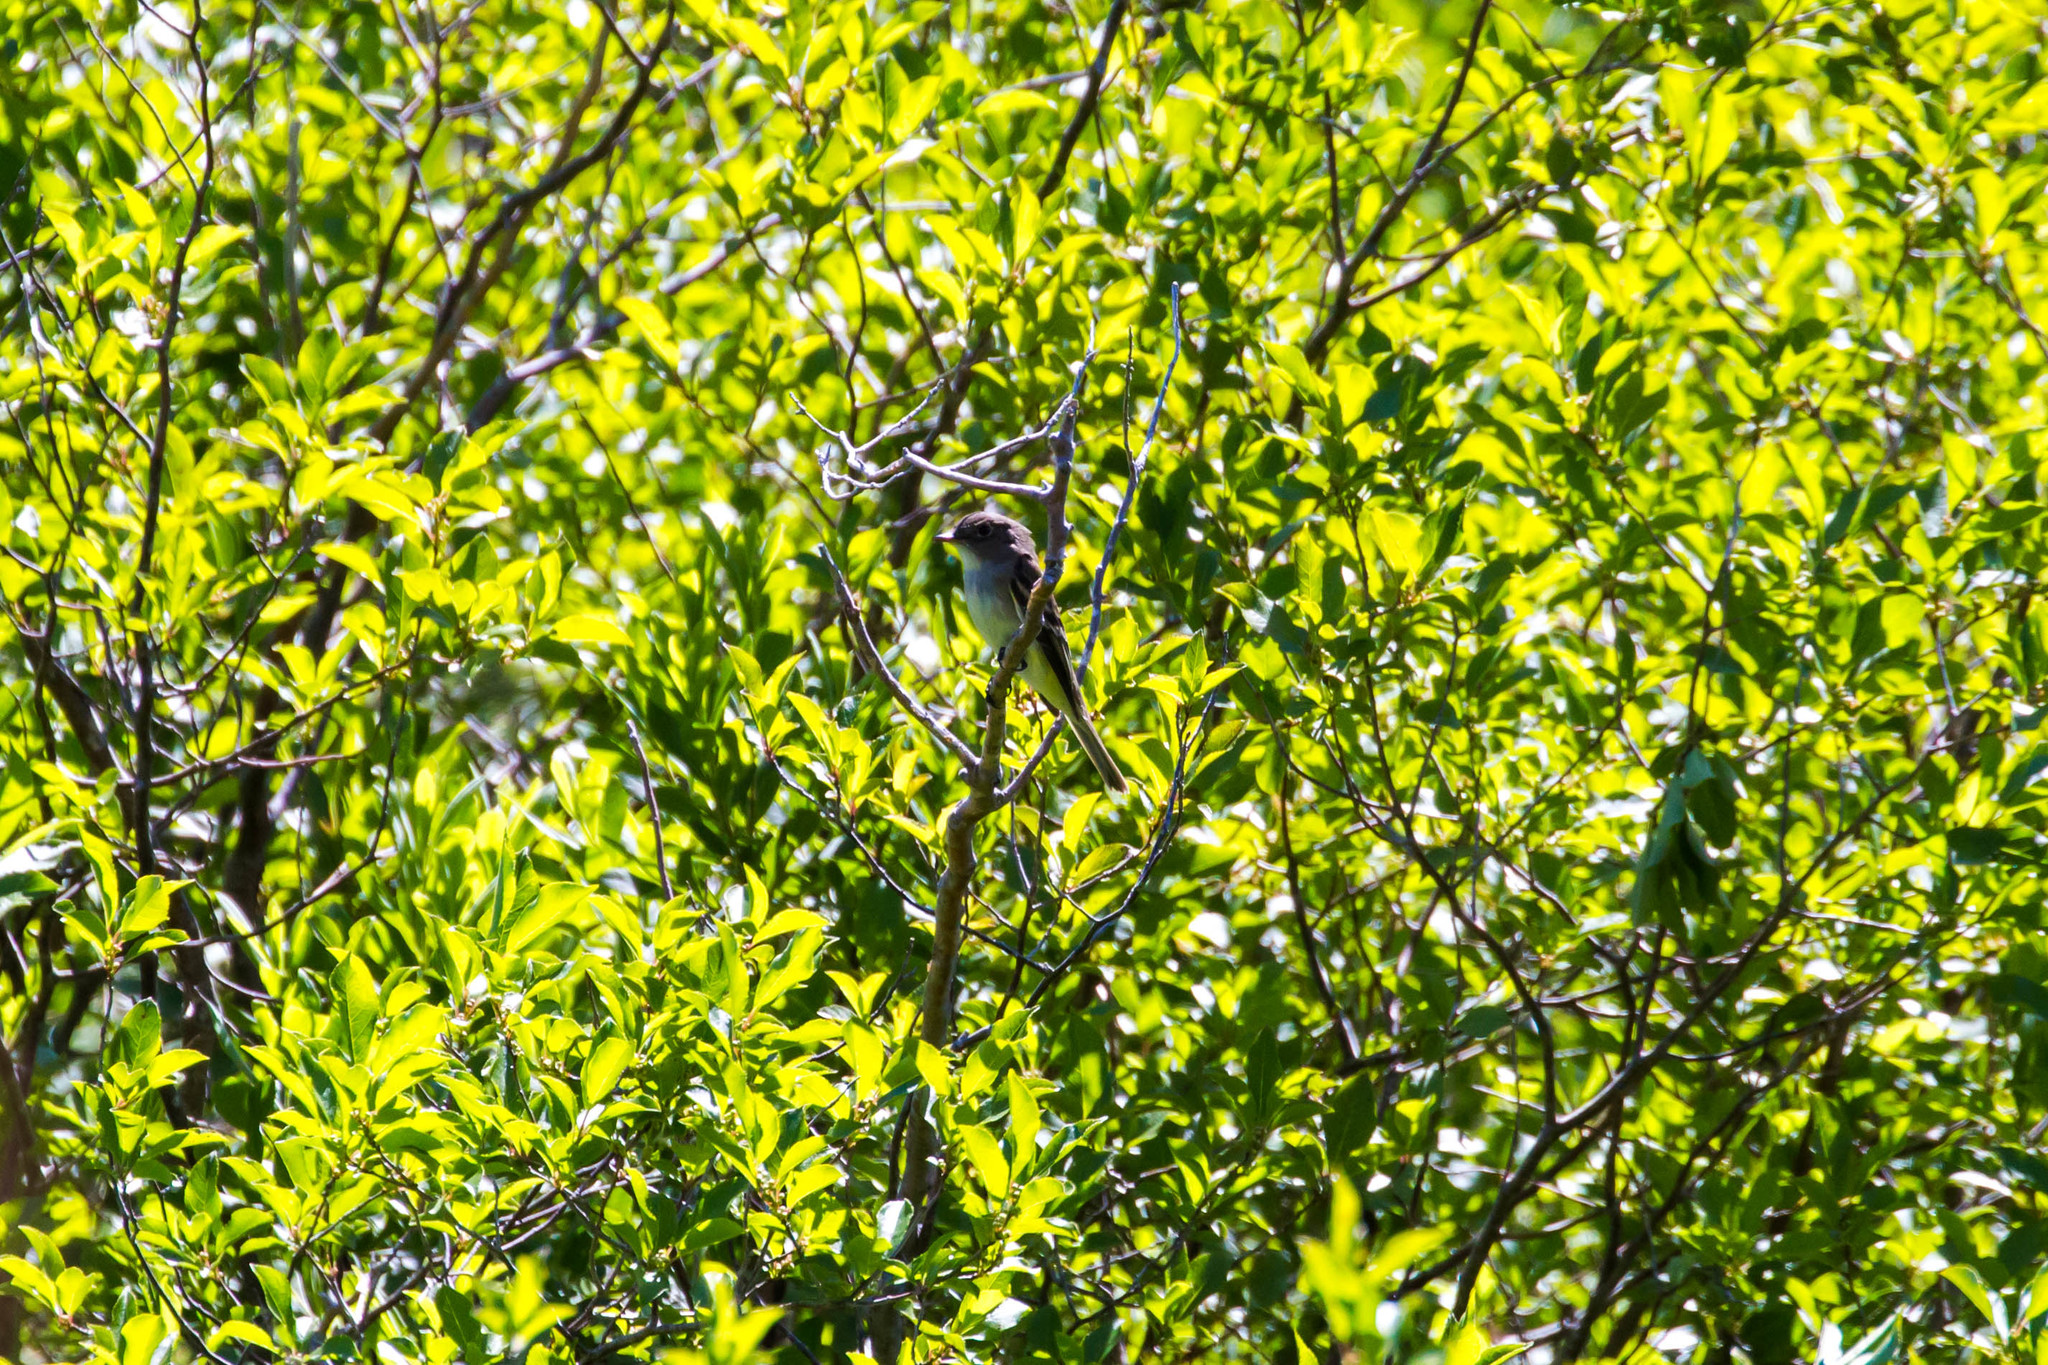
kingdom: Animalia
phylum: Chordata
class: Aves
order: Passeriformes
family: Tyrannidae
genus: Contopus
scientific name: Contopus virens
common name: Eastern wood-pewee
